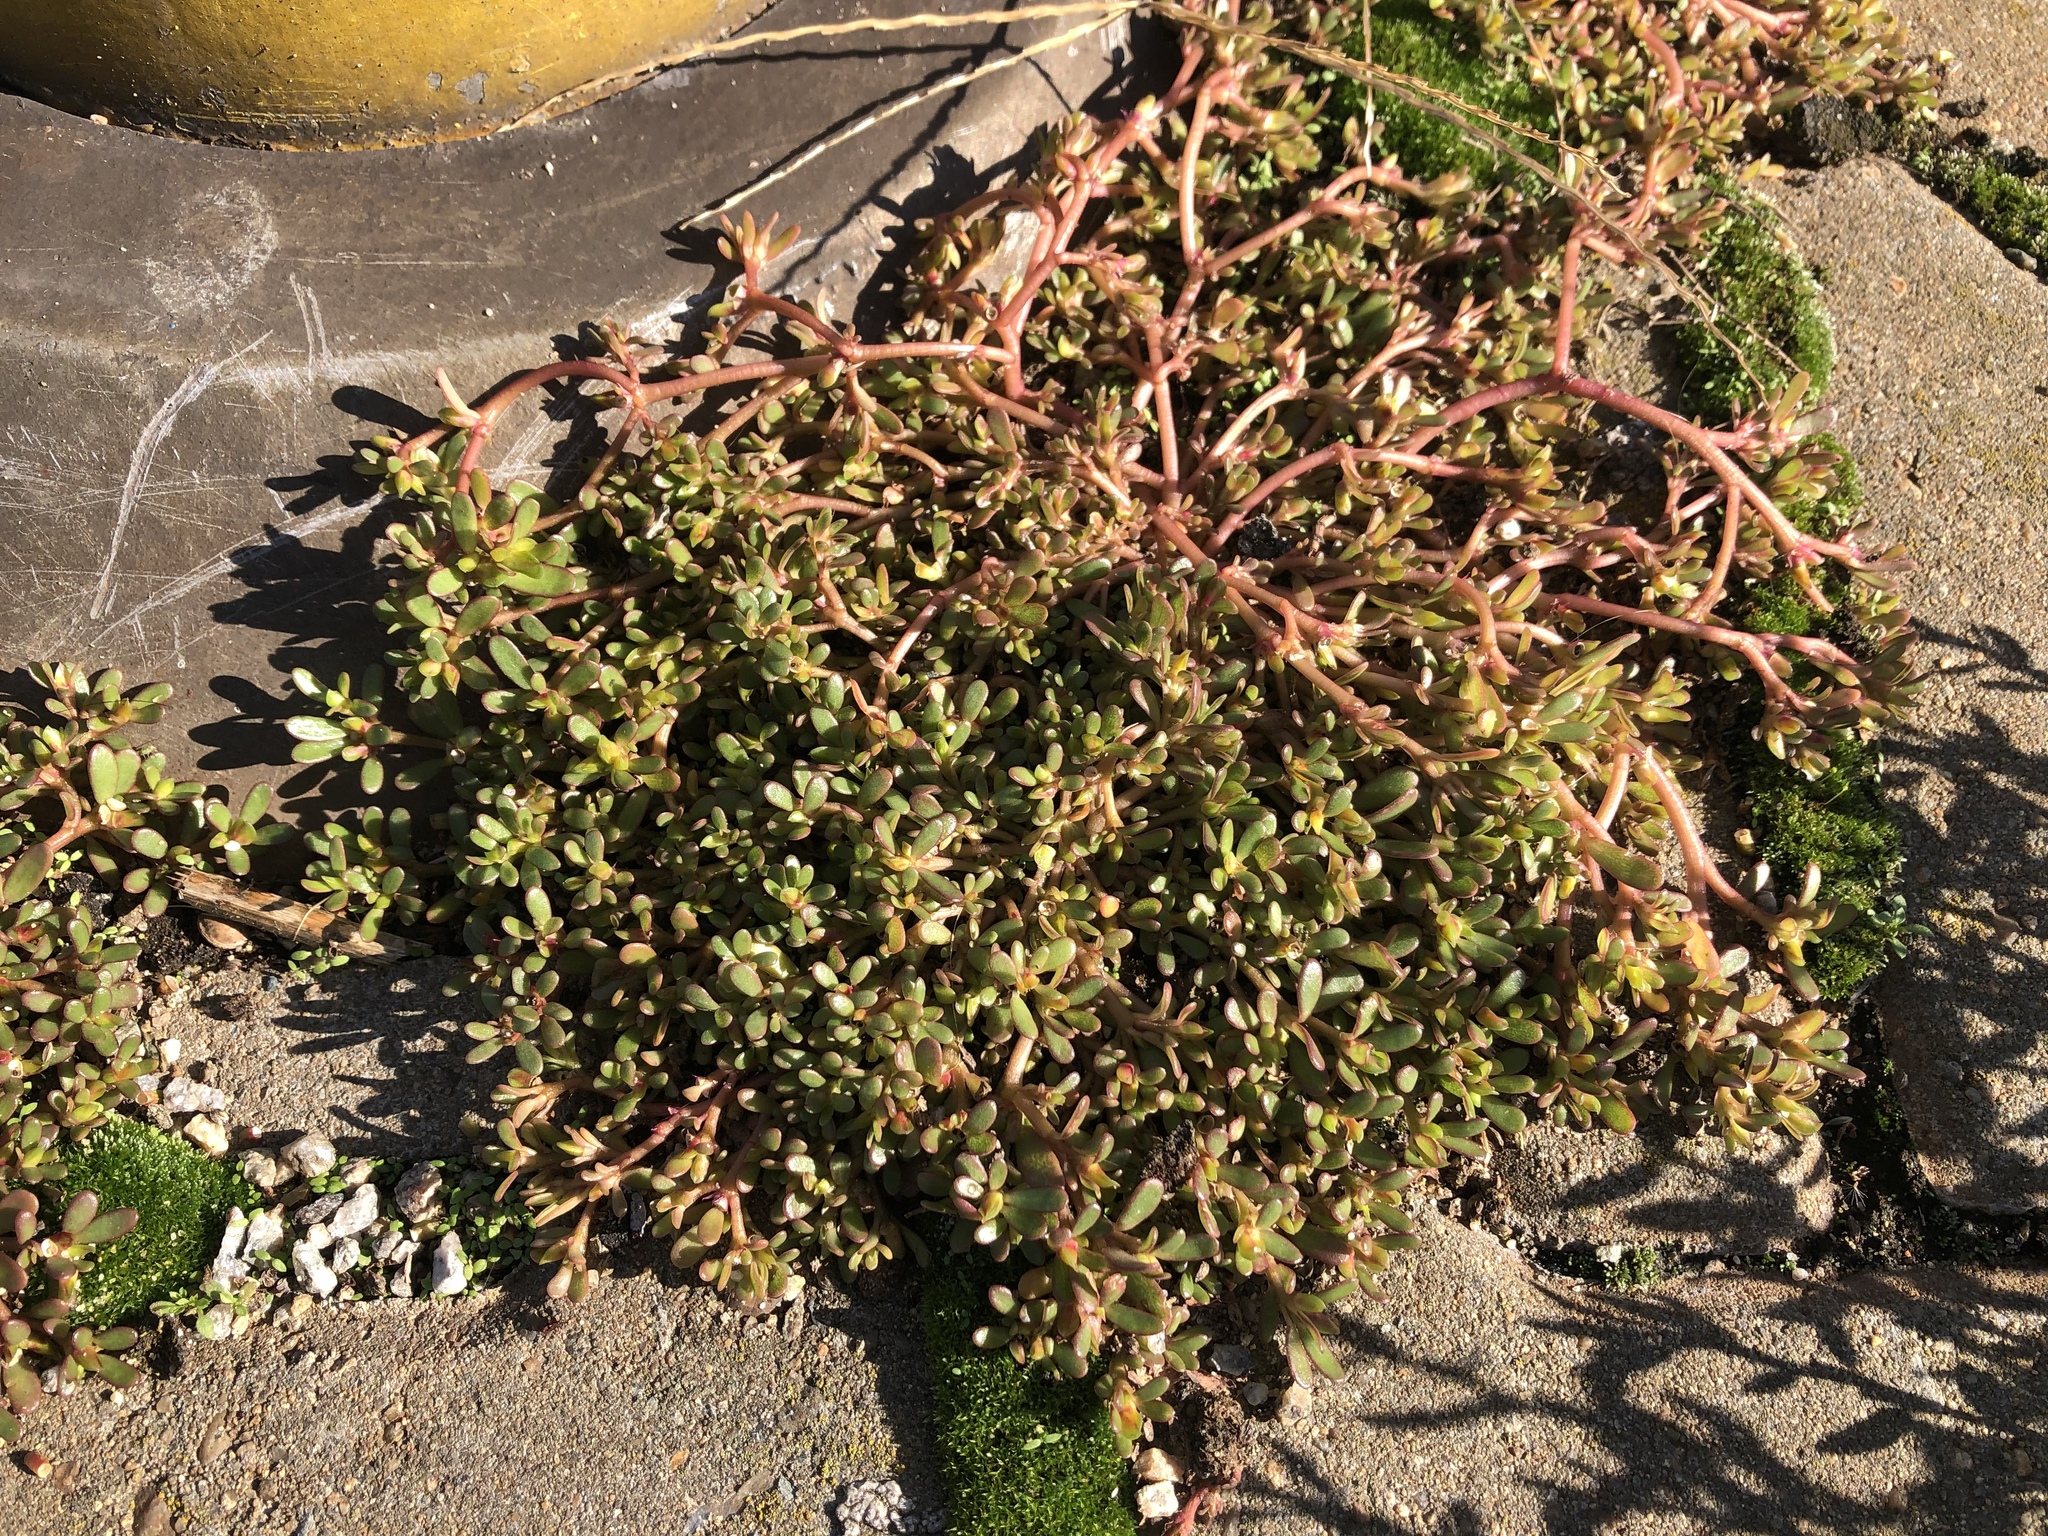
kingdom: Plantae
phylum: Tracheophyta
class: Magnoliopsida
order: Caryophyllales
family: Portulacaceae
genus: Portulaca
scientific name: Portulaca oleracea
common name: Common purslane
